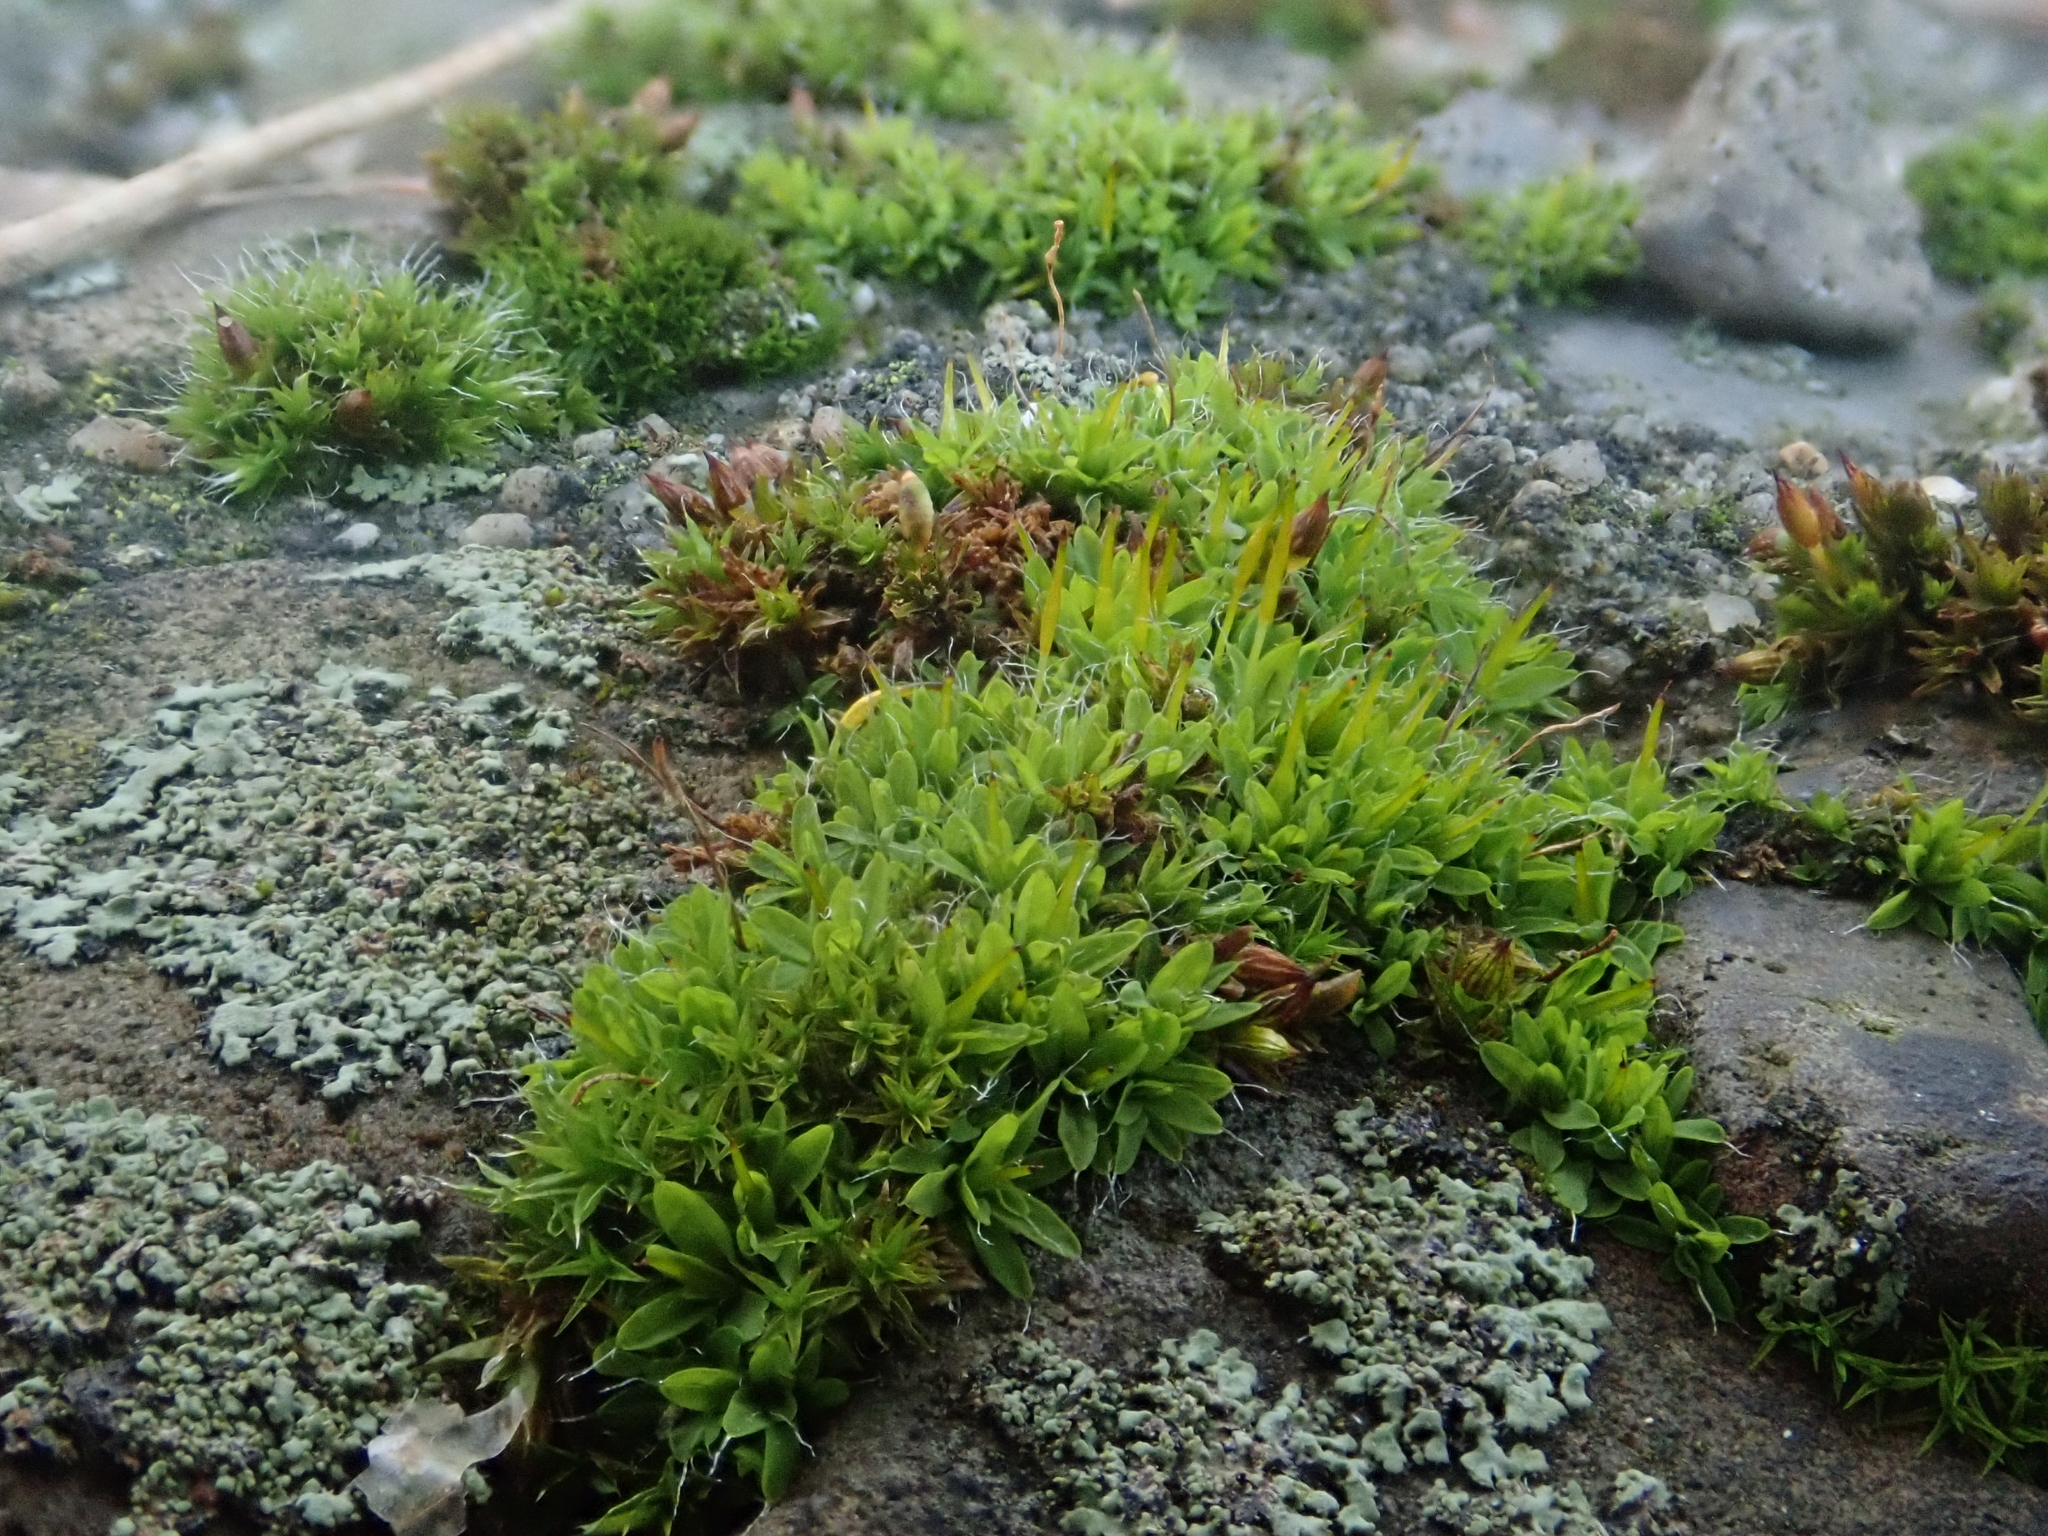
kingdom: Plantae
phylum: Bryophyta
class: Bryopsida
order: Pottiales
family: Pottiaceae
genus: Tortula
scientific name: Tortula muralis
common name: Wall screw-moss
